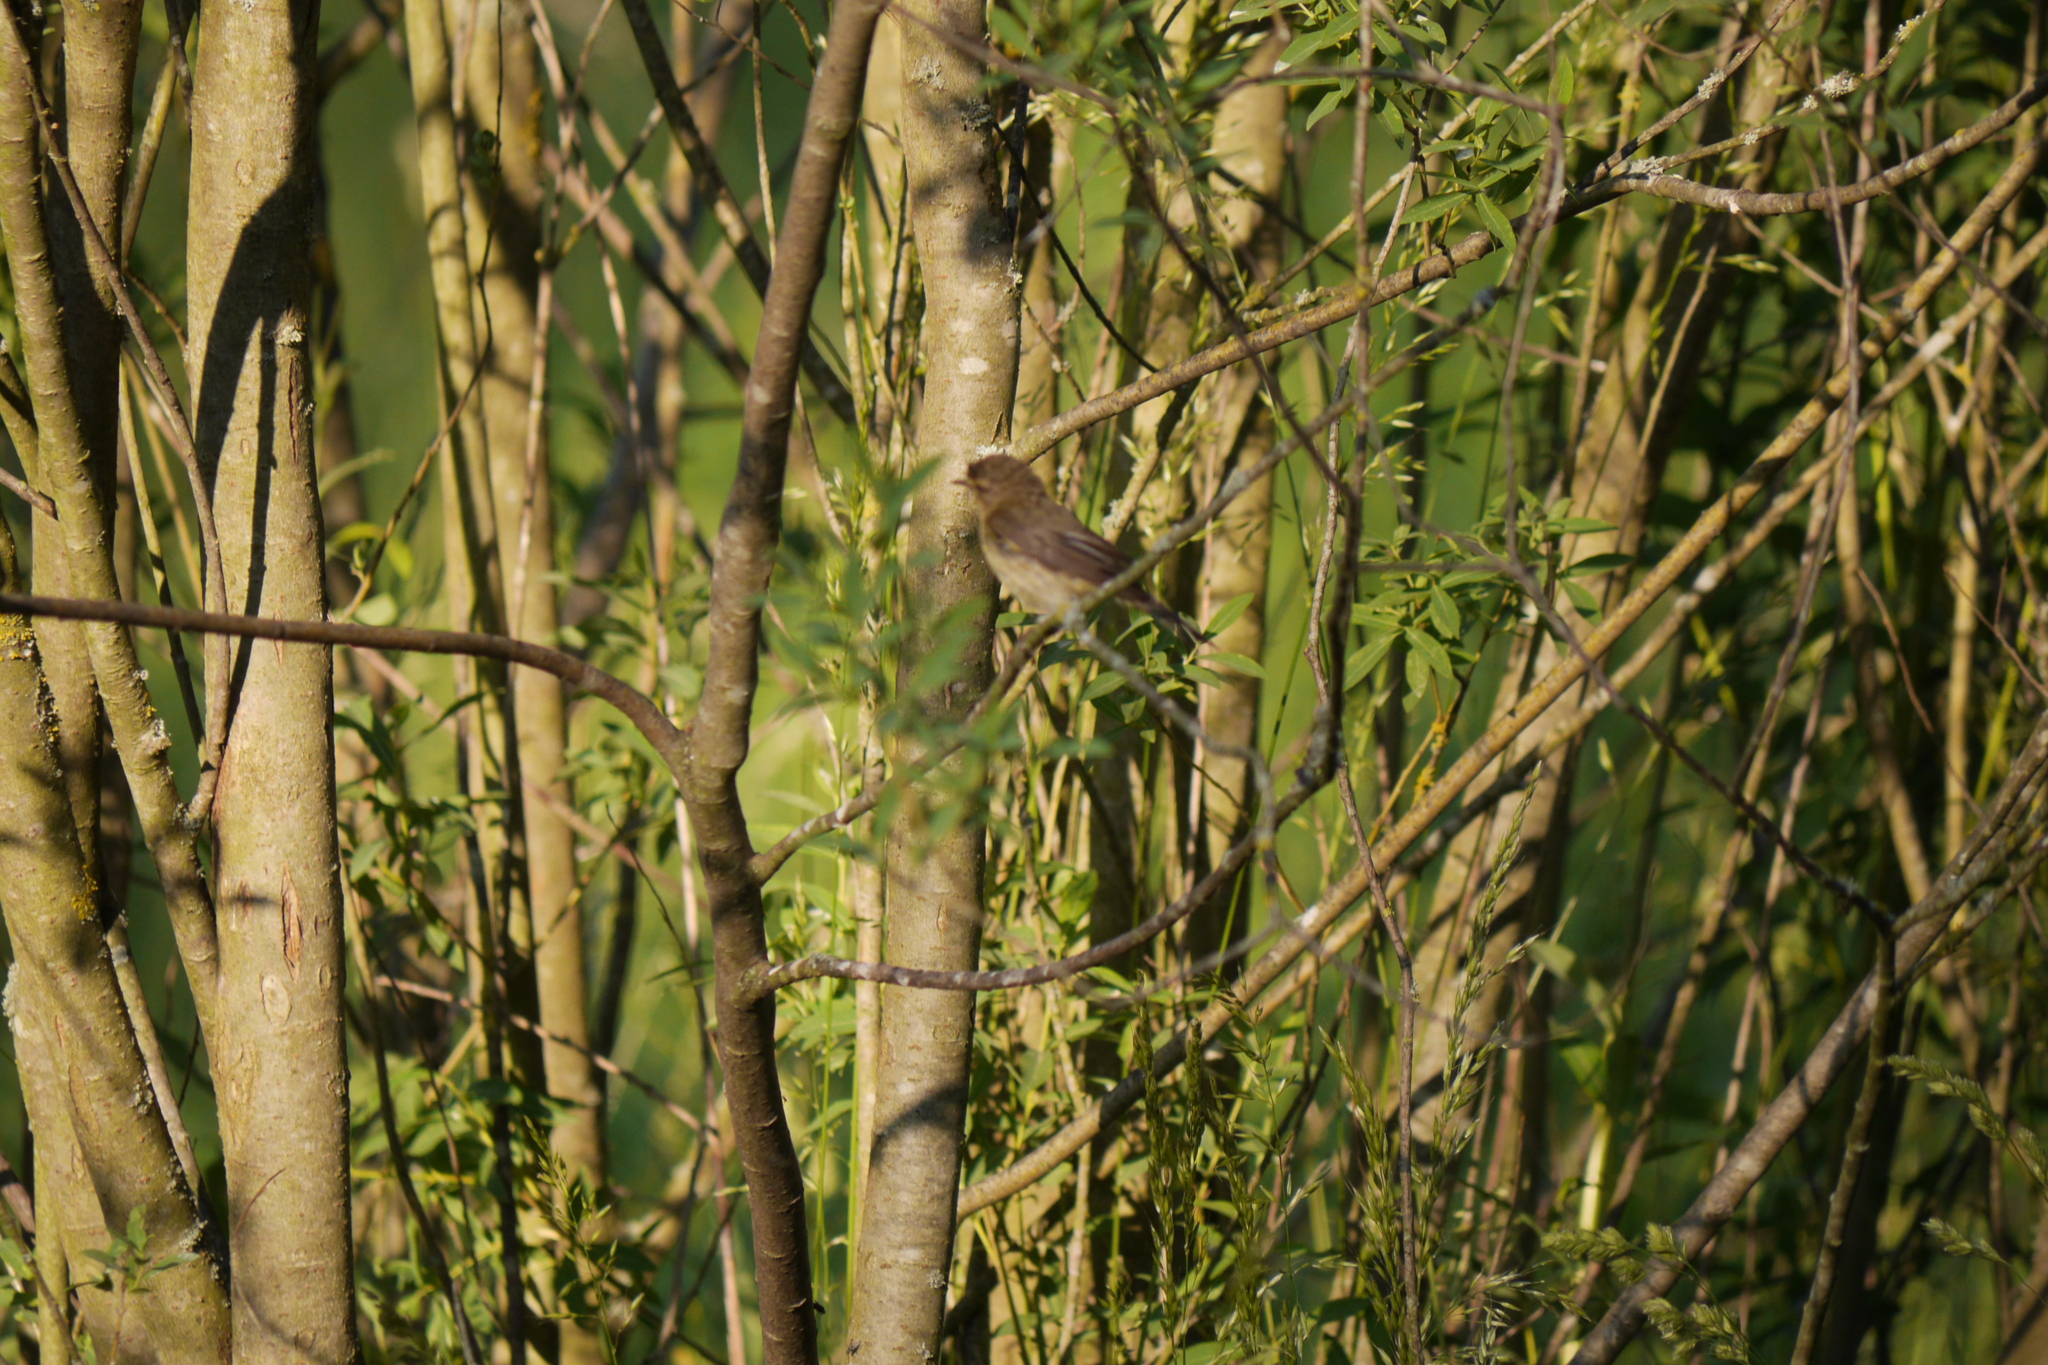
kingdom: Animalia
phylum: Chordata
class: Aves
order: Passeriformes
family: Phylloscopidae
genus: Phylloscopus
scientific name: Phylloscopus collybita
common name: Common chiffchaff
